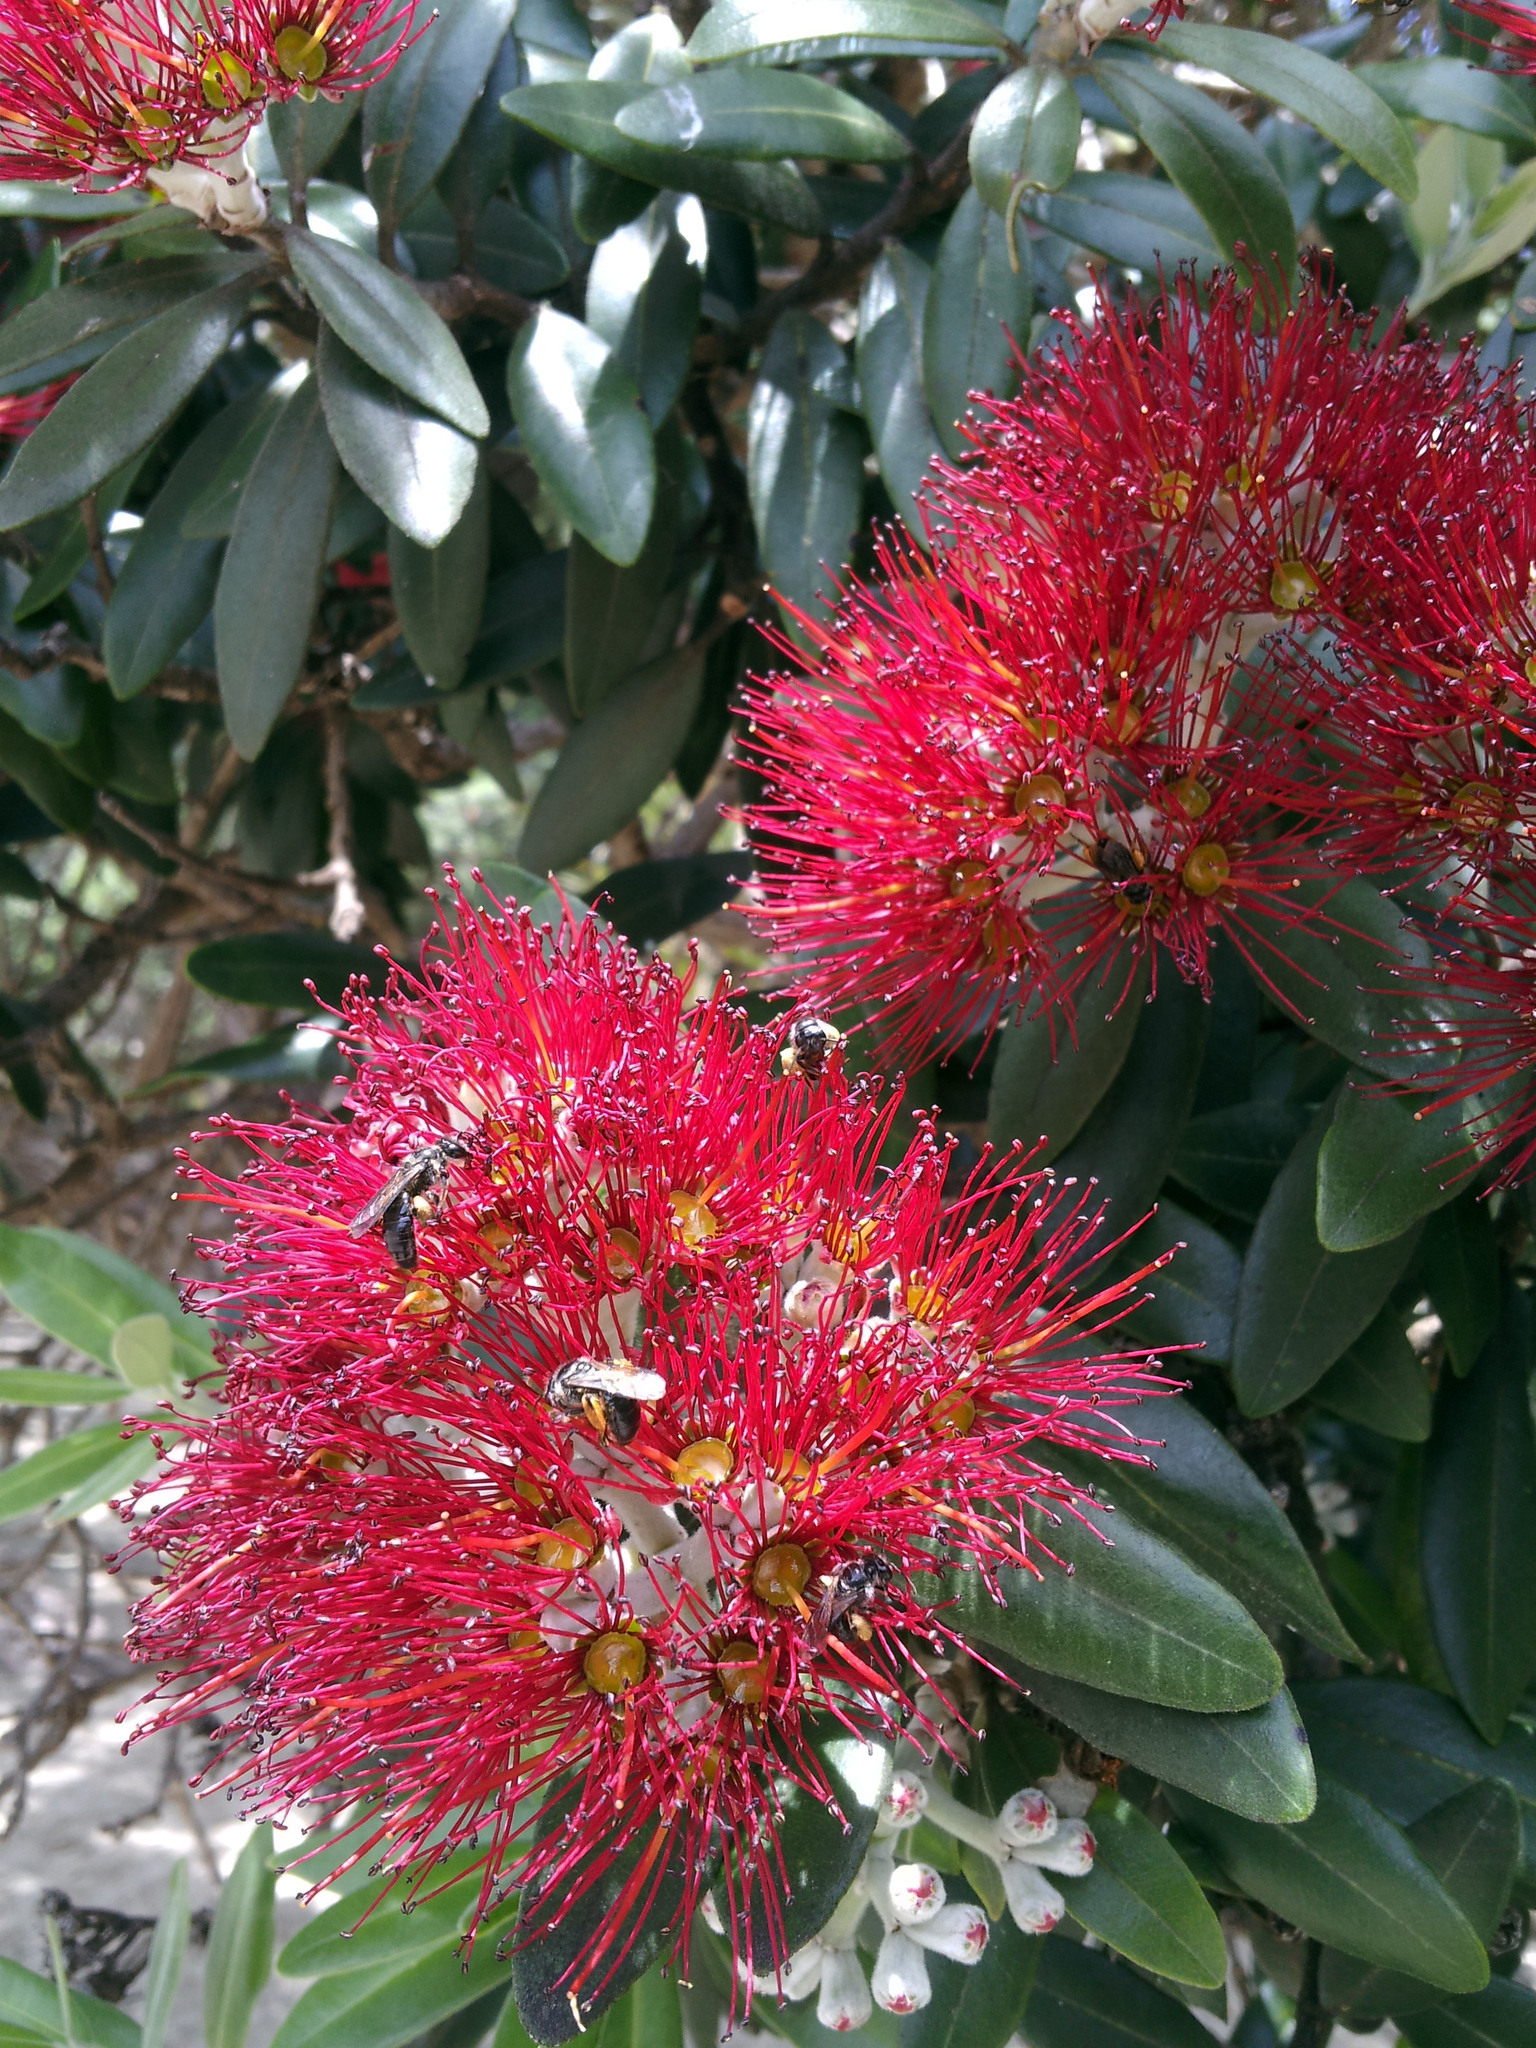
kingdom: Plantae
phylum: Tracheophyta
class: Magnoliopsida
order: Myrtales
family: Myrtaceae
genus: Metrosideros
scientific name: Metrosideros excelsa
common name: New zealand christmastree
